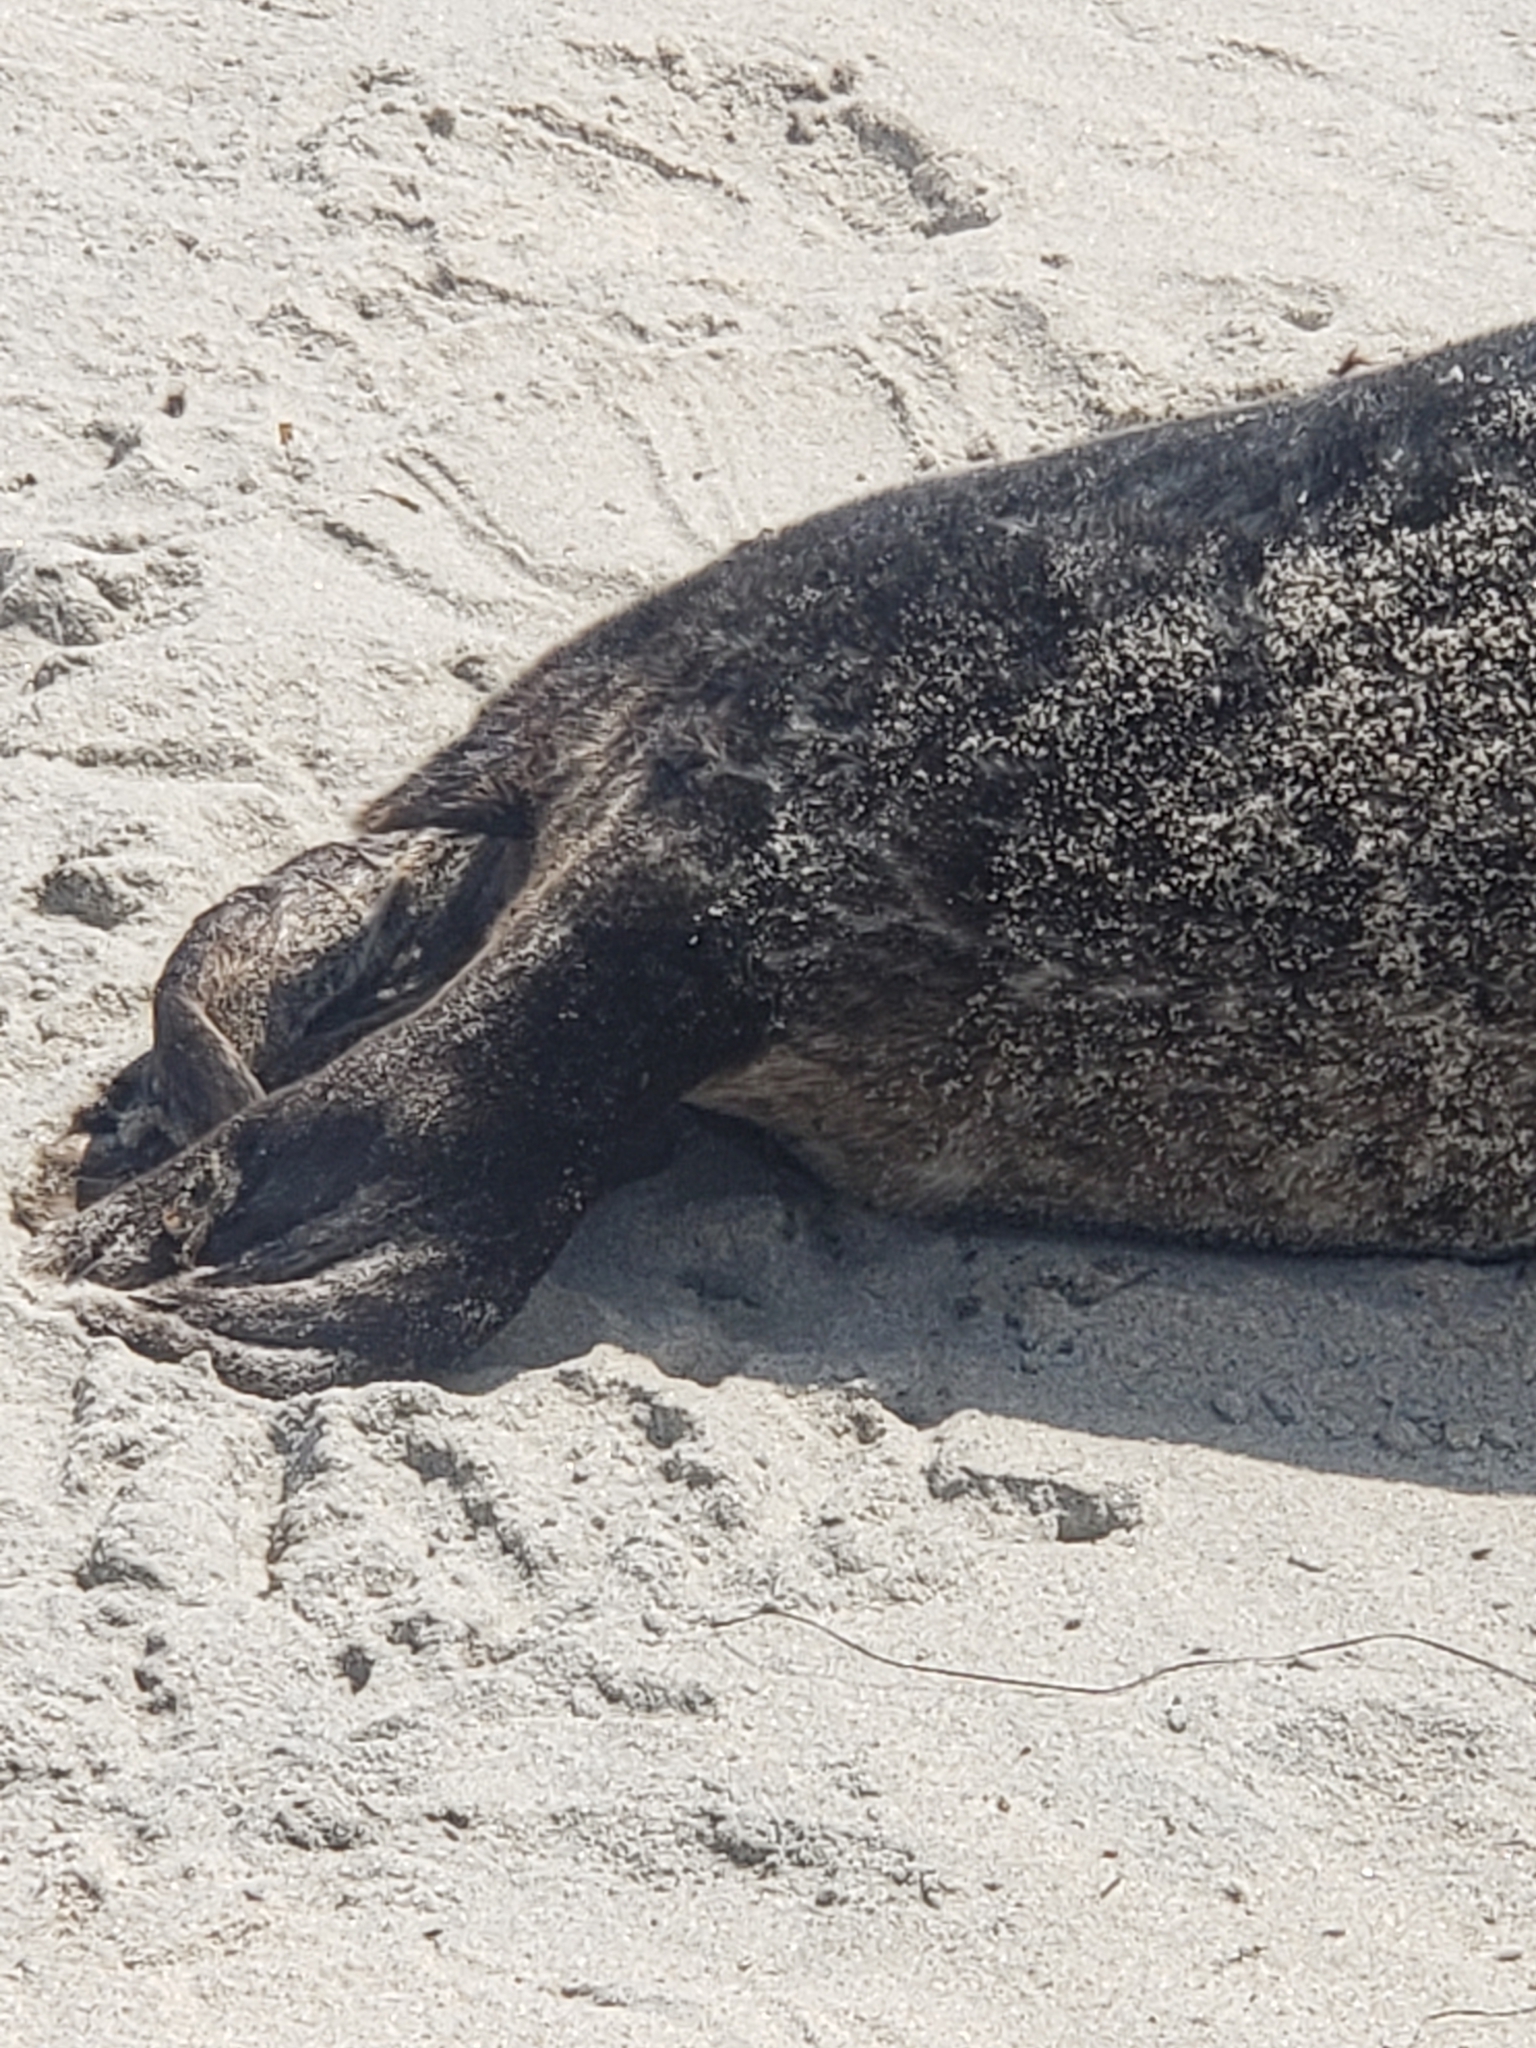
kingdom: Animalia
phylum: Chordata
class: Mammalia
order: Carnivora
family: Phocidae
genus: Phoca
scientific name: Phoca vitulina
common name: Harbor seal
